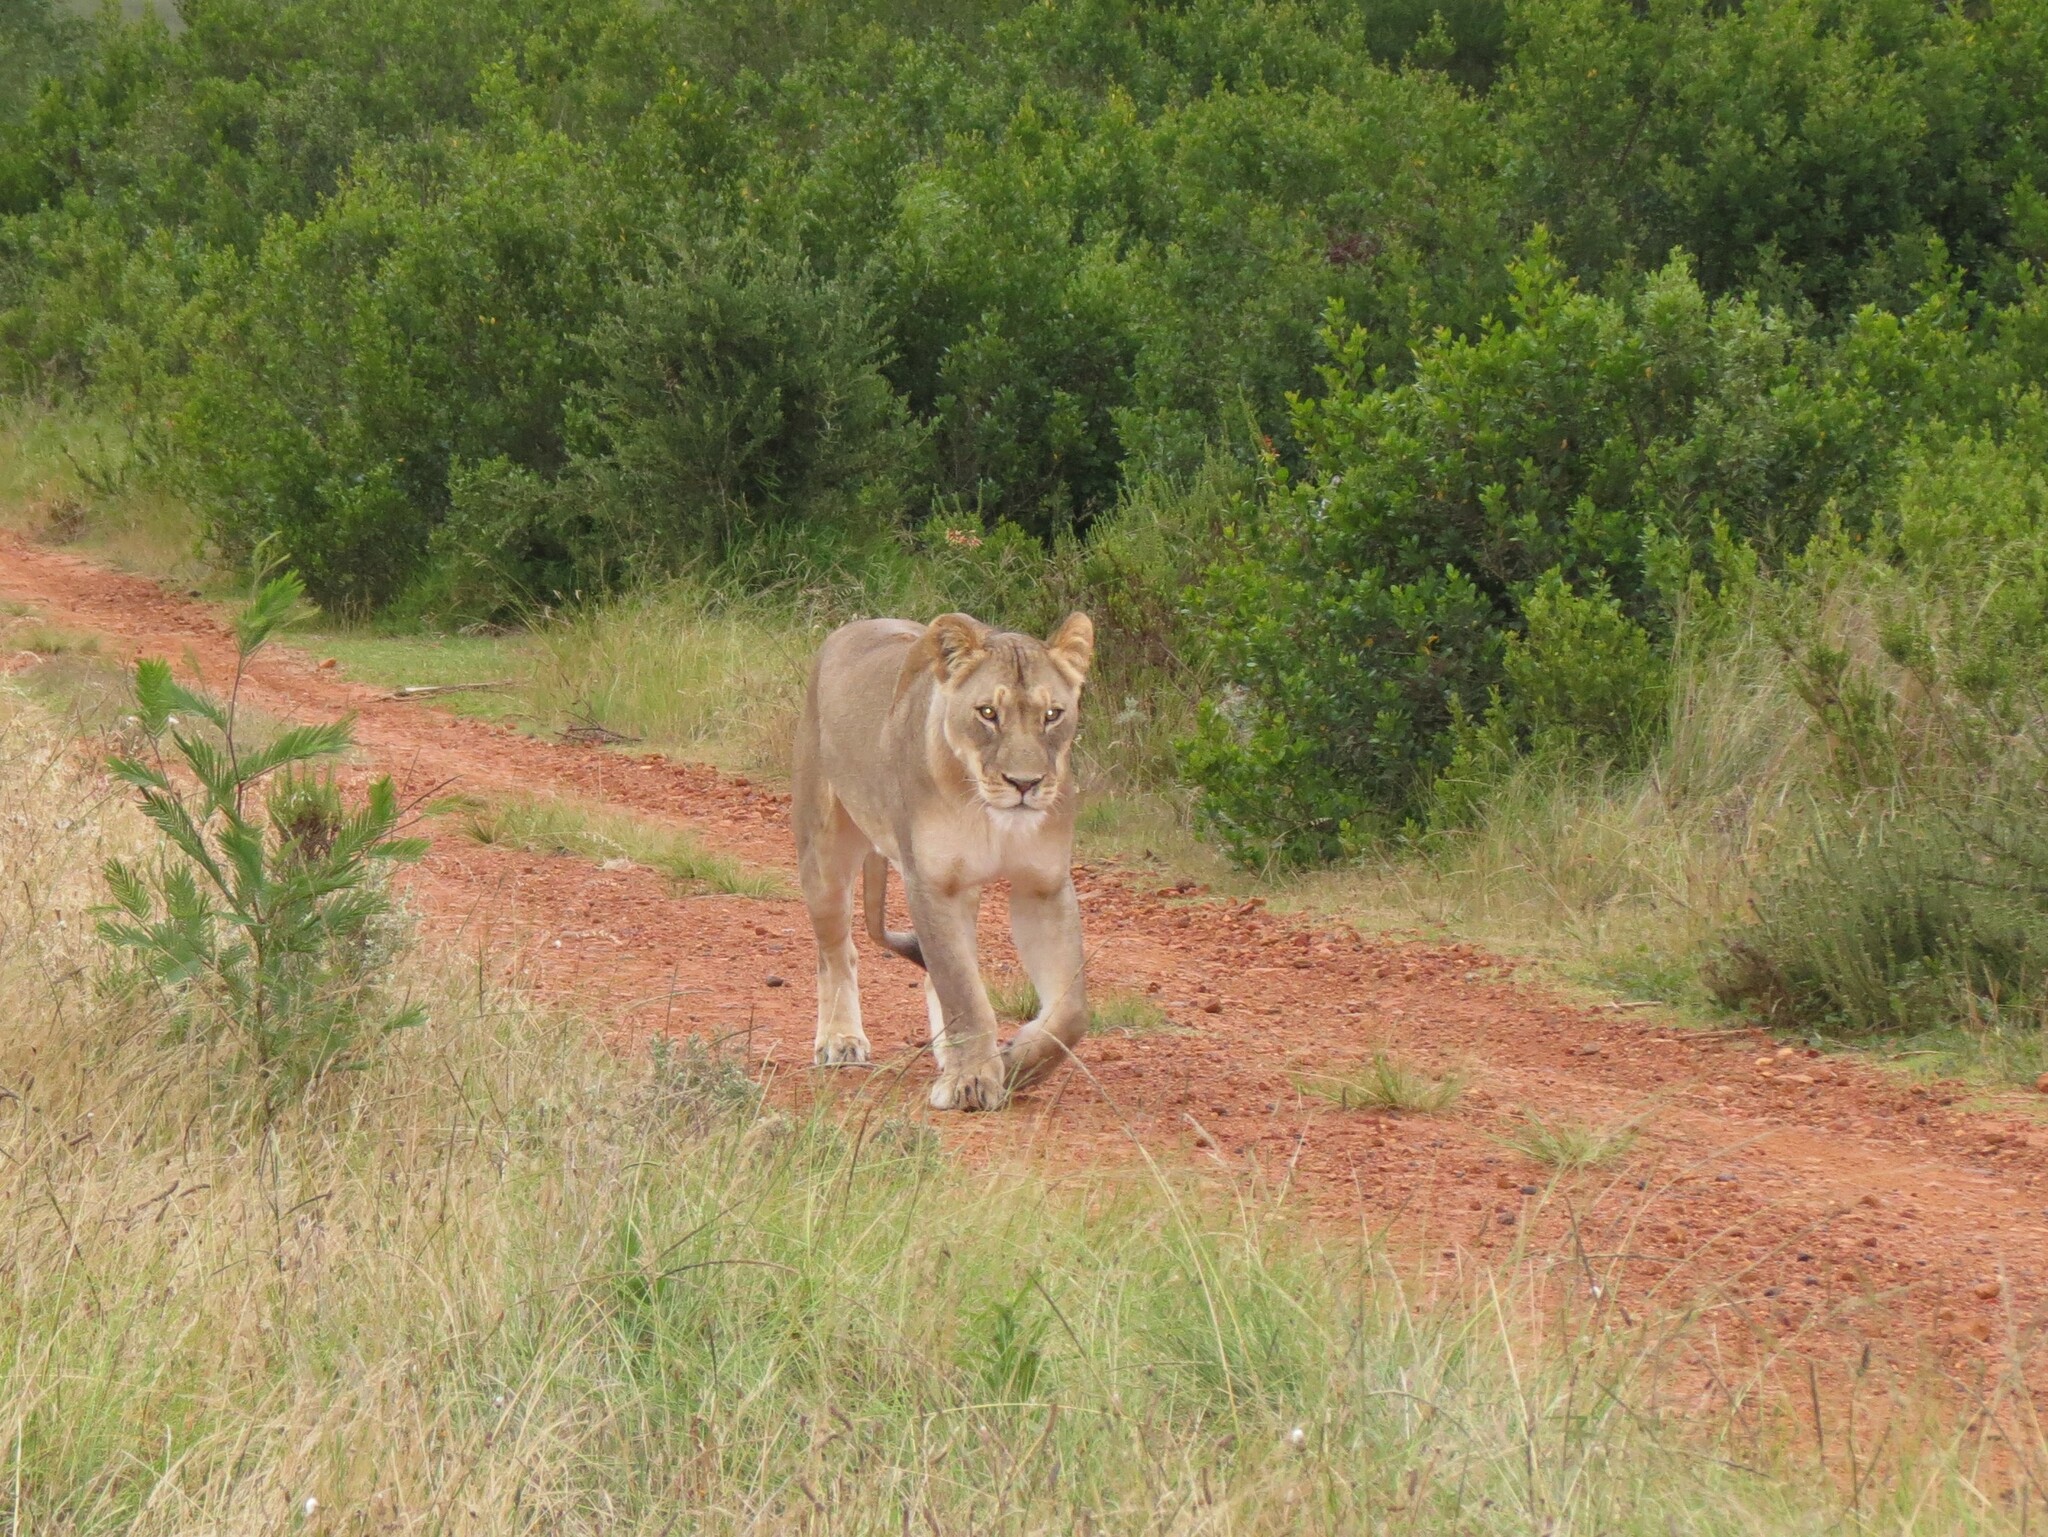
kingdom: Animalia
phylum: Chordata
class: Mammalia
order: Carnivora
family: Felidae
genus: Panthera
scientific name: Panthera leo
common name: Lion
